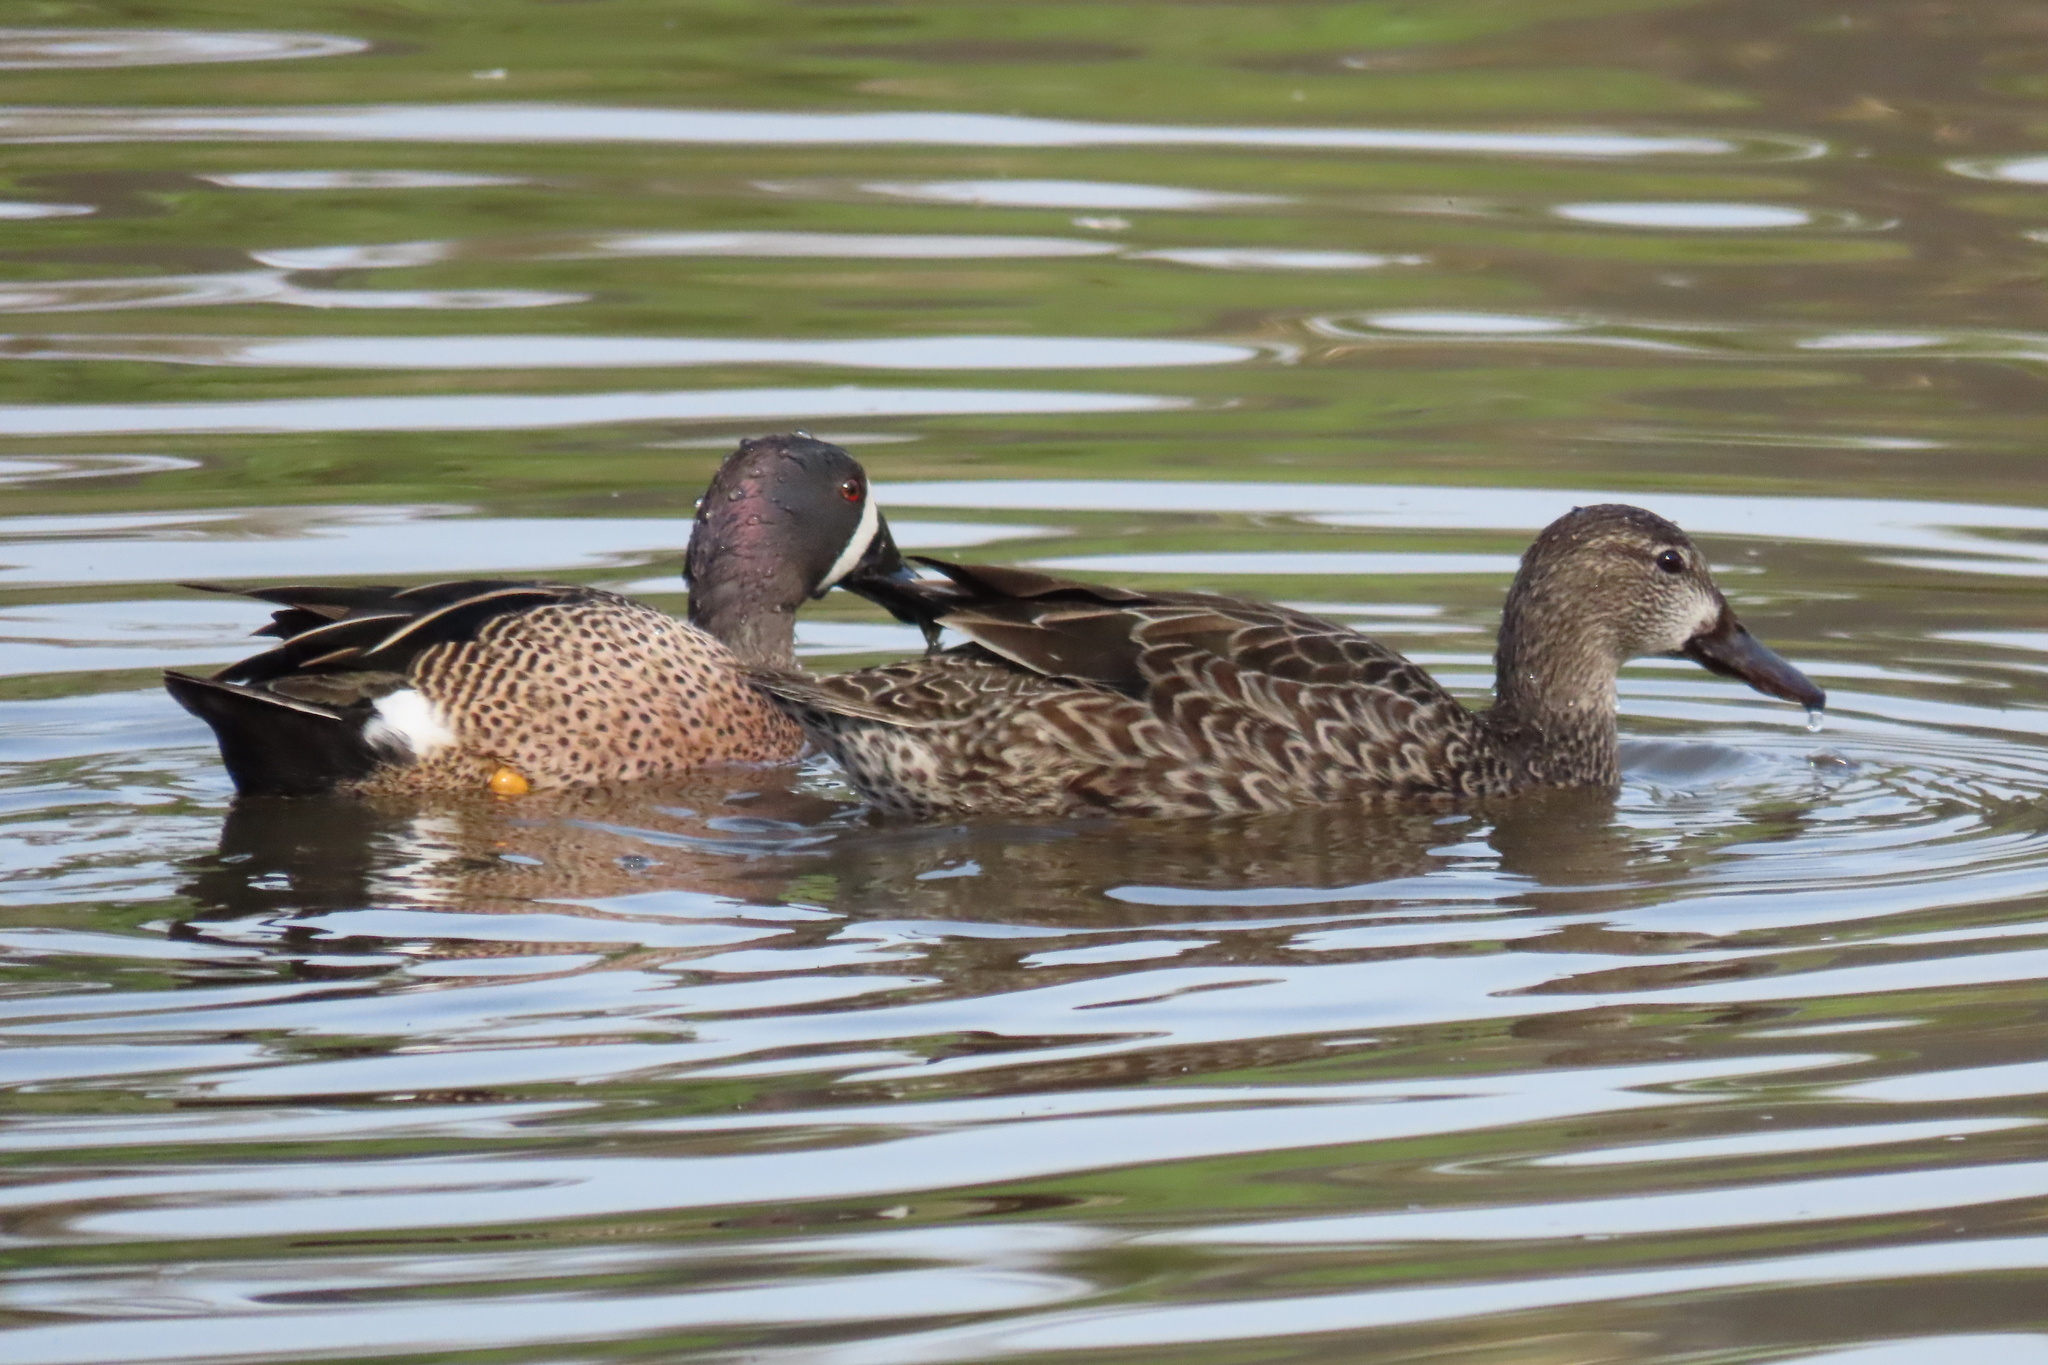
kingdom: Animalia
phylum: Chordata
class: Aves
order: Anseriformes
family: Anatidae
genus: Spatula
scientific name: Spatula discors
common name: Blue-winged teal
